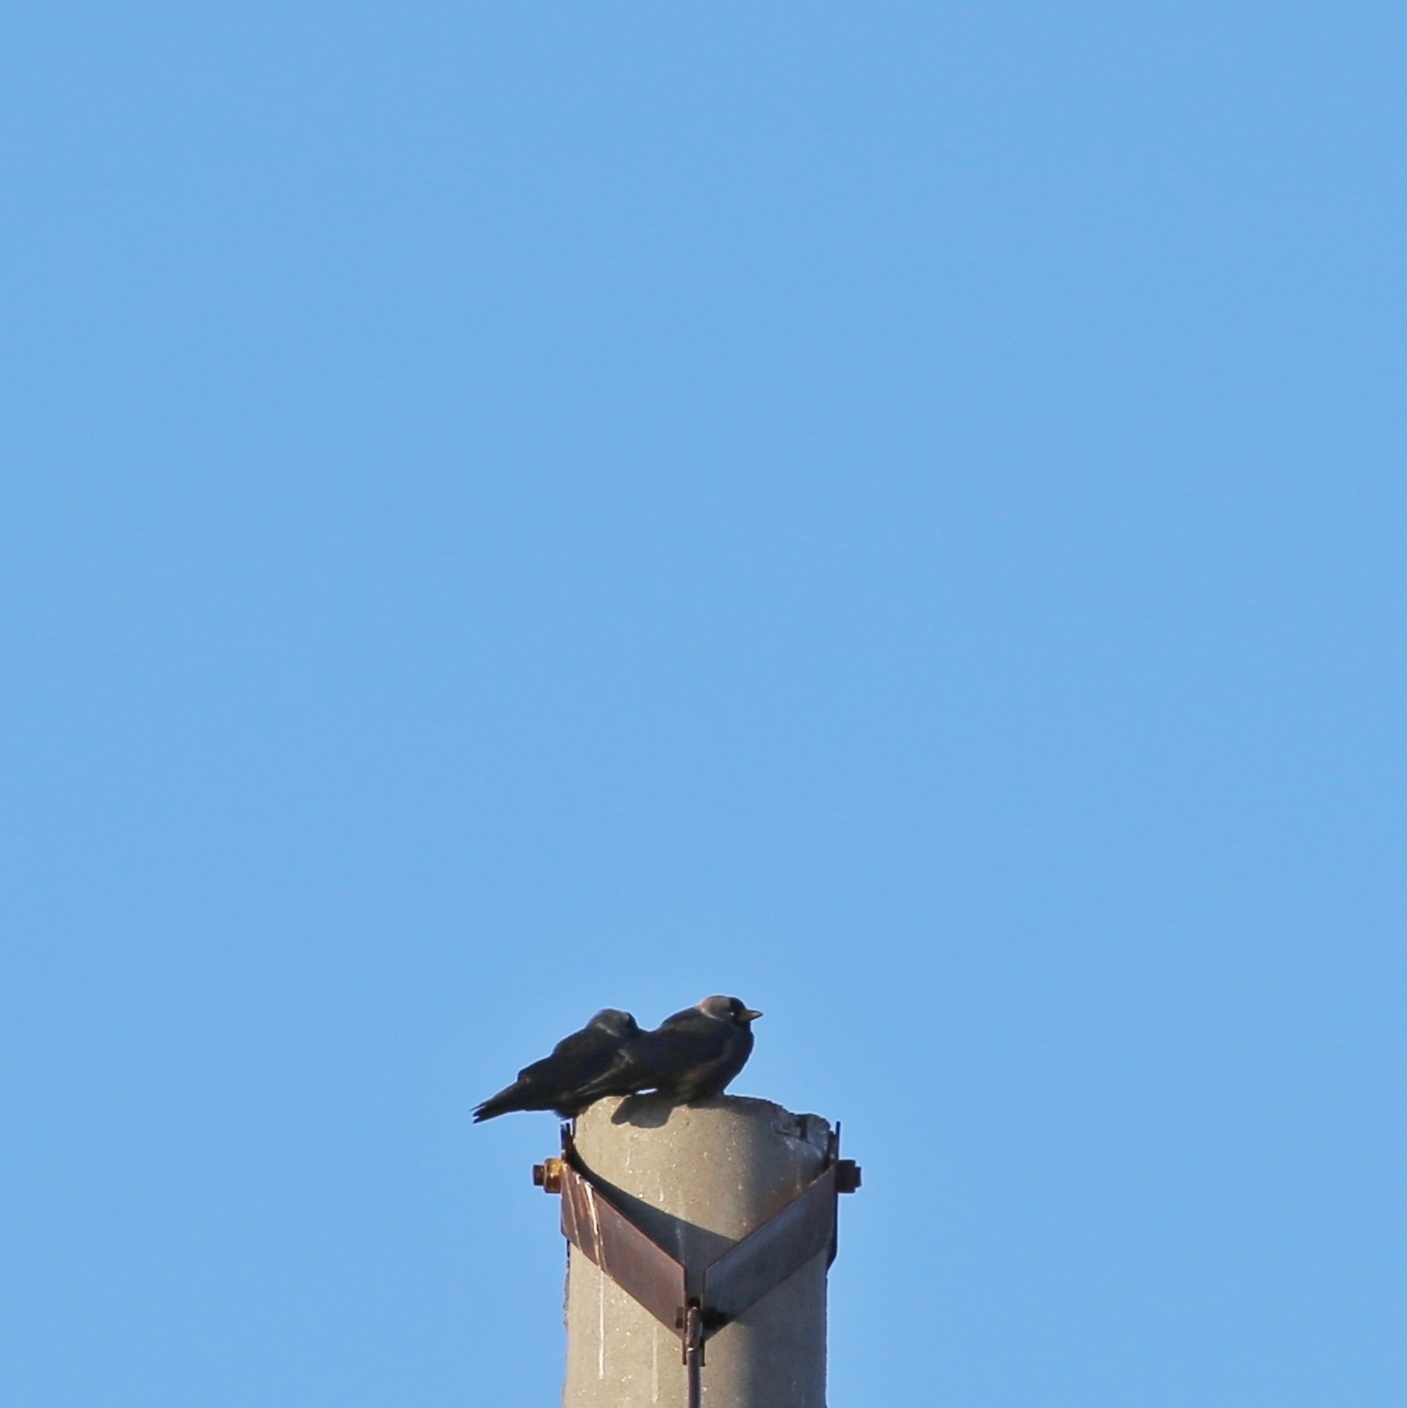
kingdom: Animalia
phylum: Chordata
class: Aves
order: Passeriformes
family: Corvidae
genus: Coloeus
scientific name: Coloeus monedula
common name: Western jackdaw
